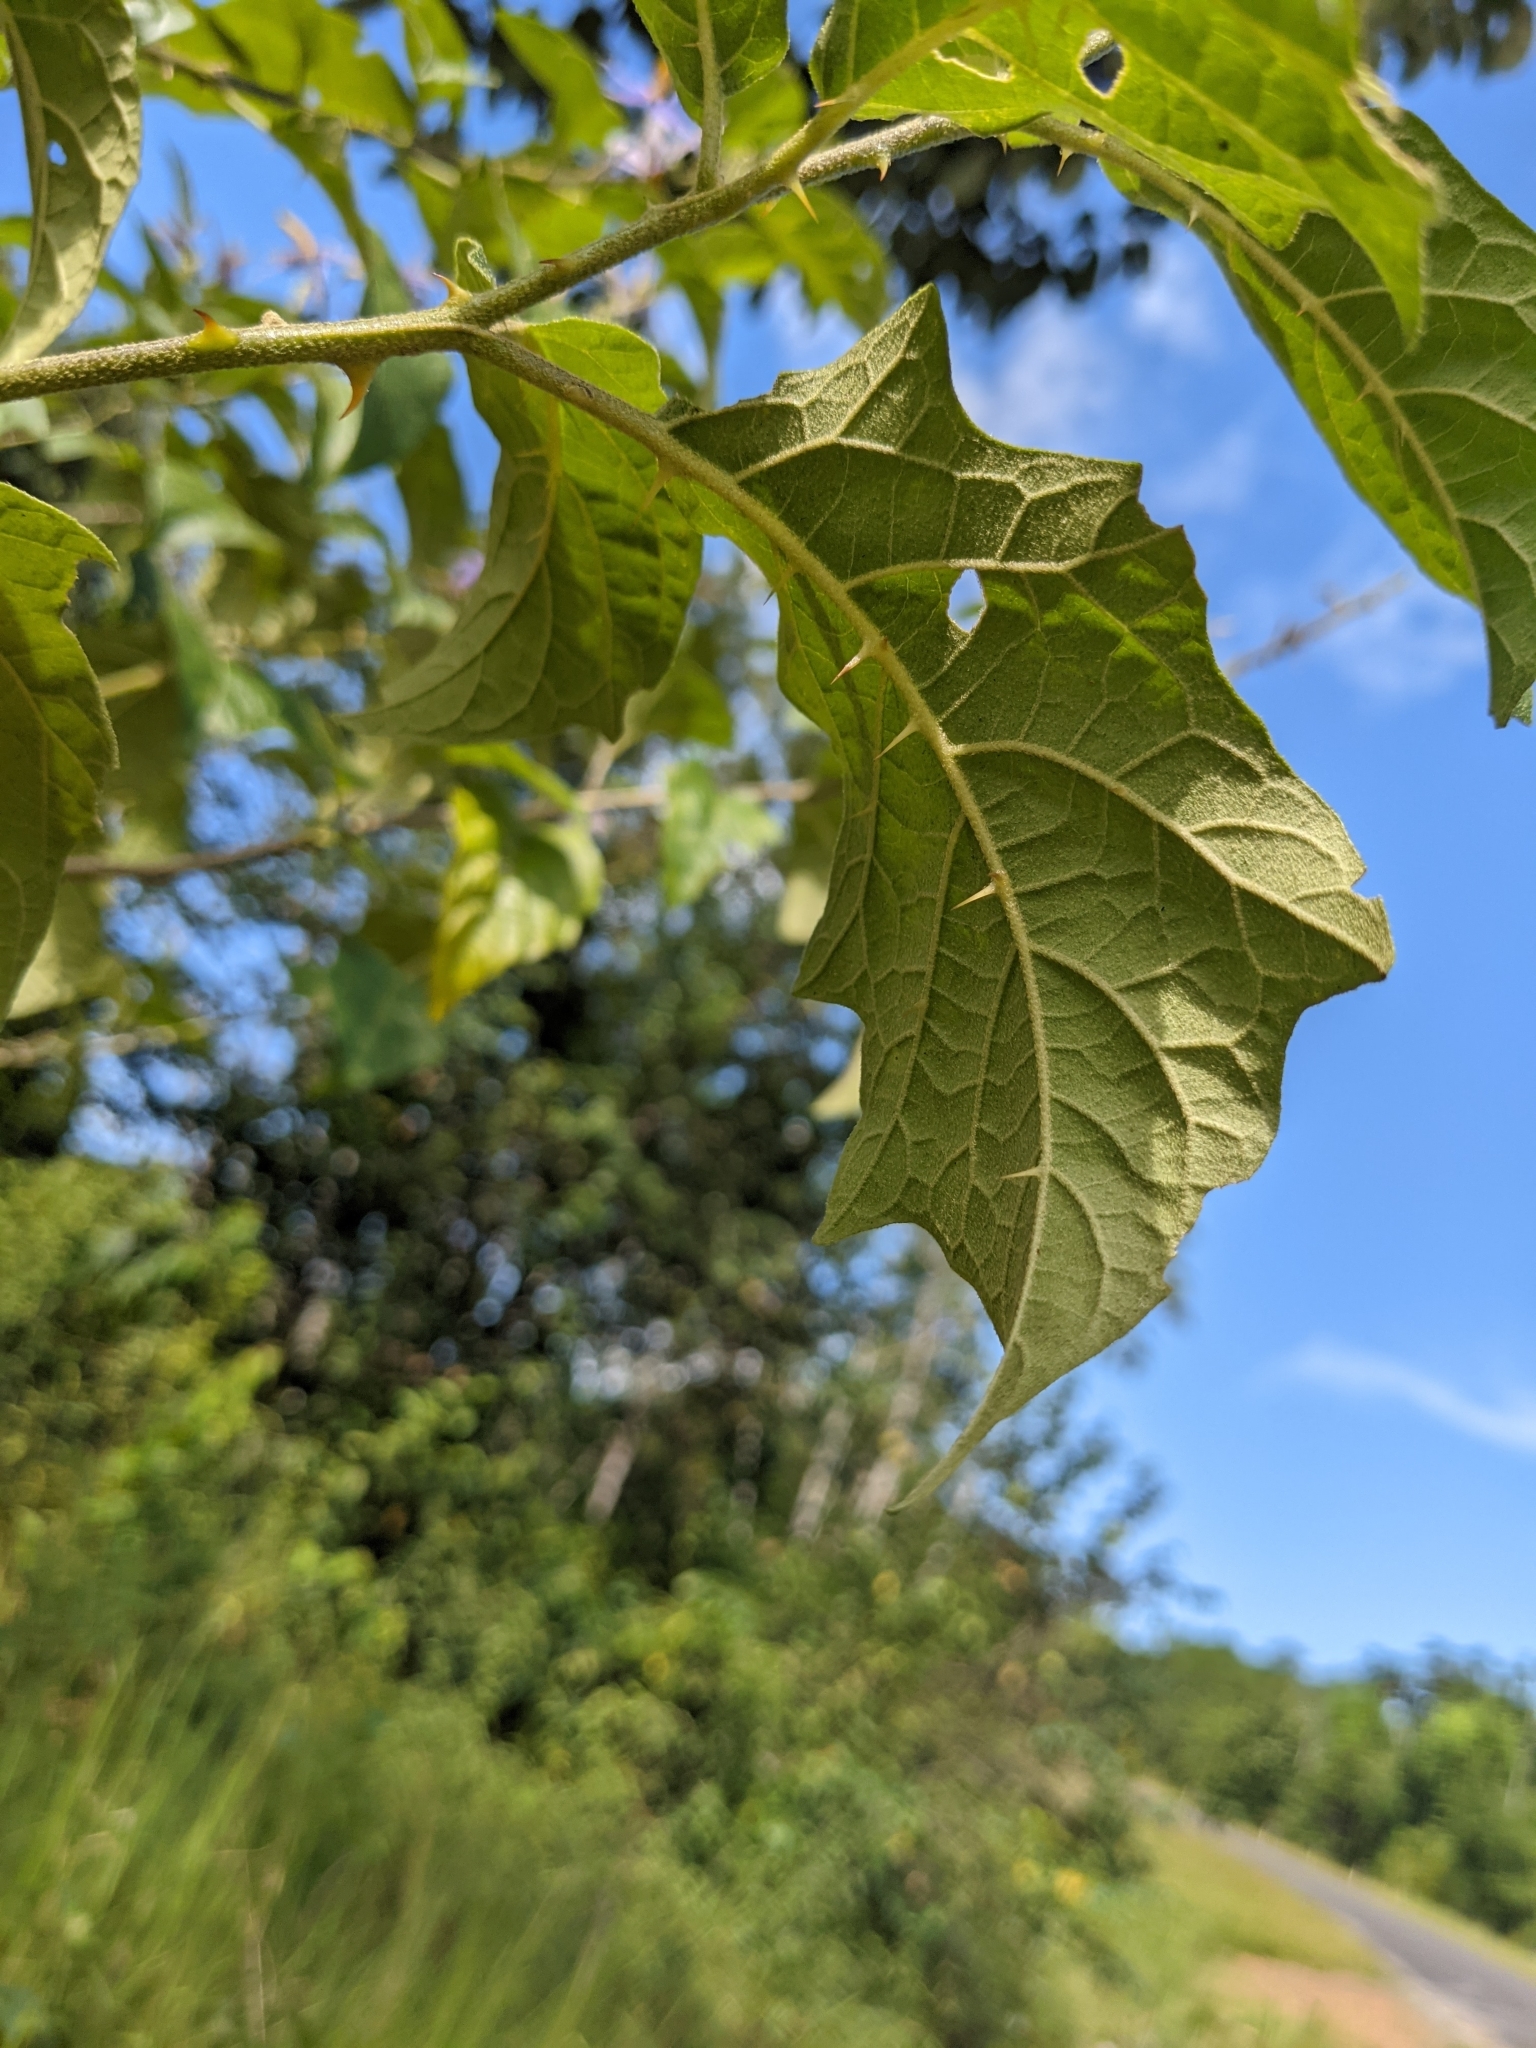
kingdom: Plantae
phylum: Tracheophyta
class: Magnoliopsida
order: Solanales
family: Solanaceae
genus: Solanum
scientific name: Solanum subinerme
